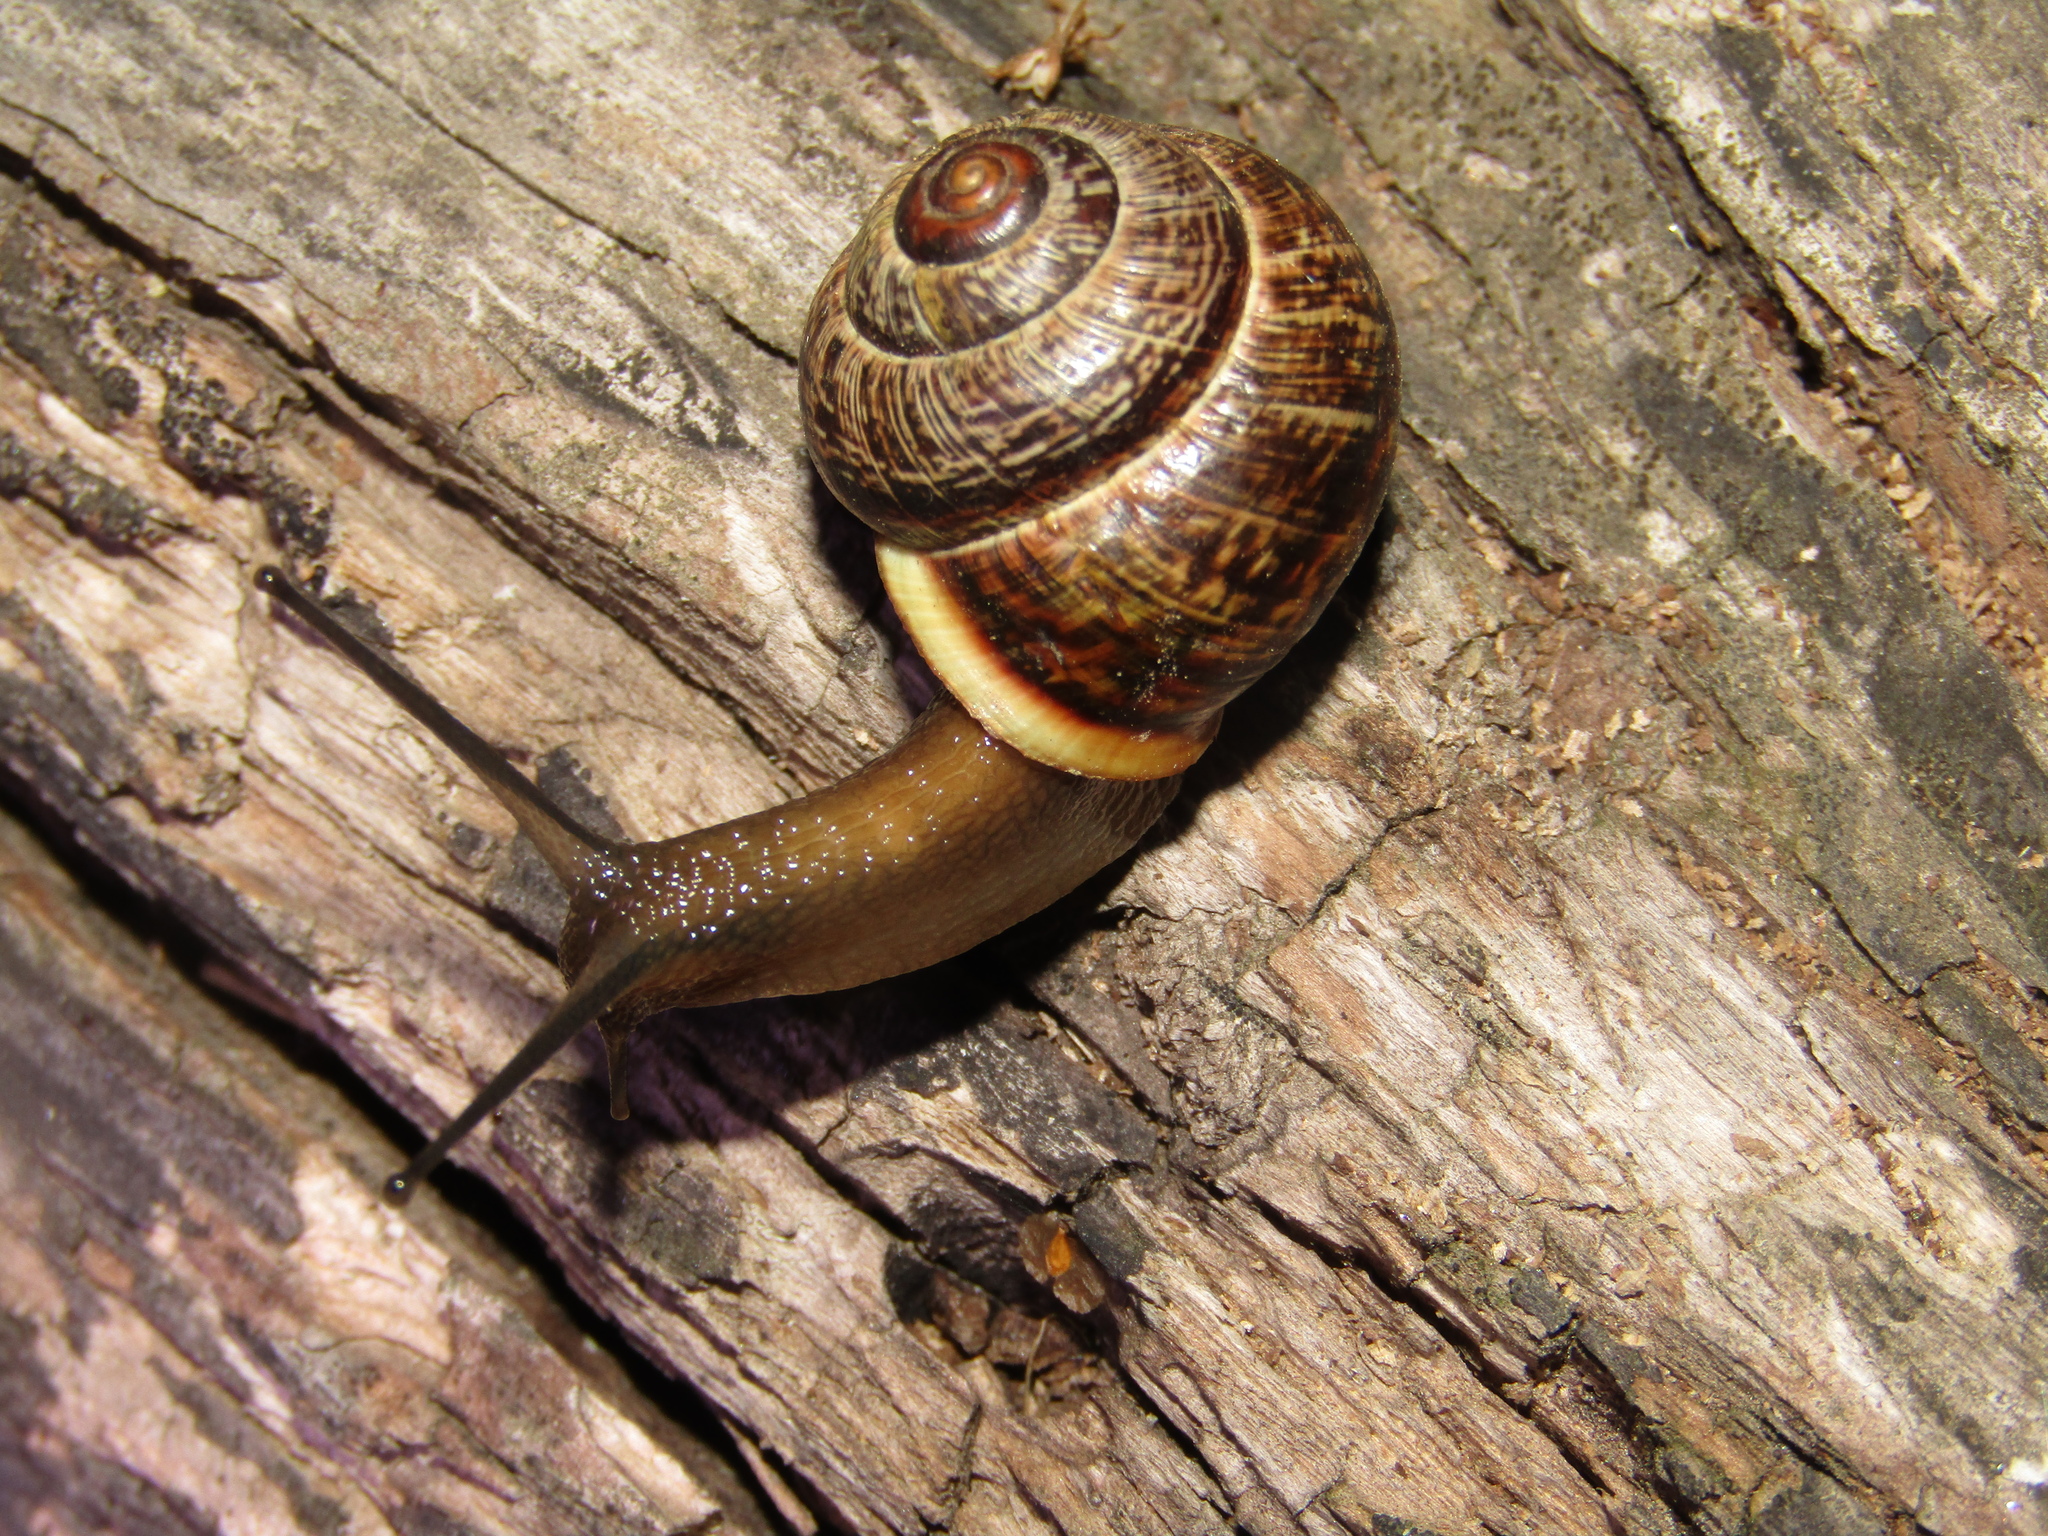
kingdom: Animalia
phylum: Mollusca
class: Gastropoda
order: Stylommatophora
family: Helicidae
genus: Arianta
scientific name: Arianta arbustorum
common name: Copse snail
